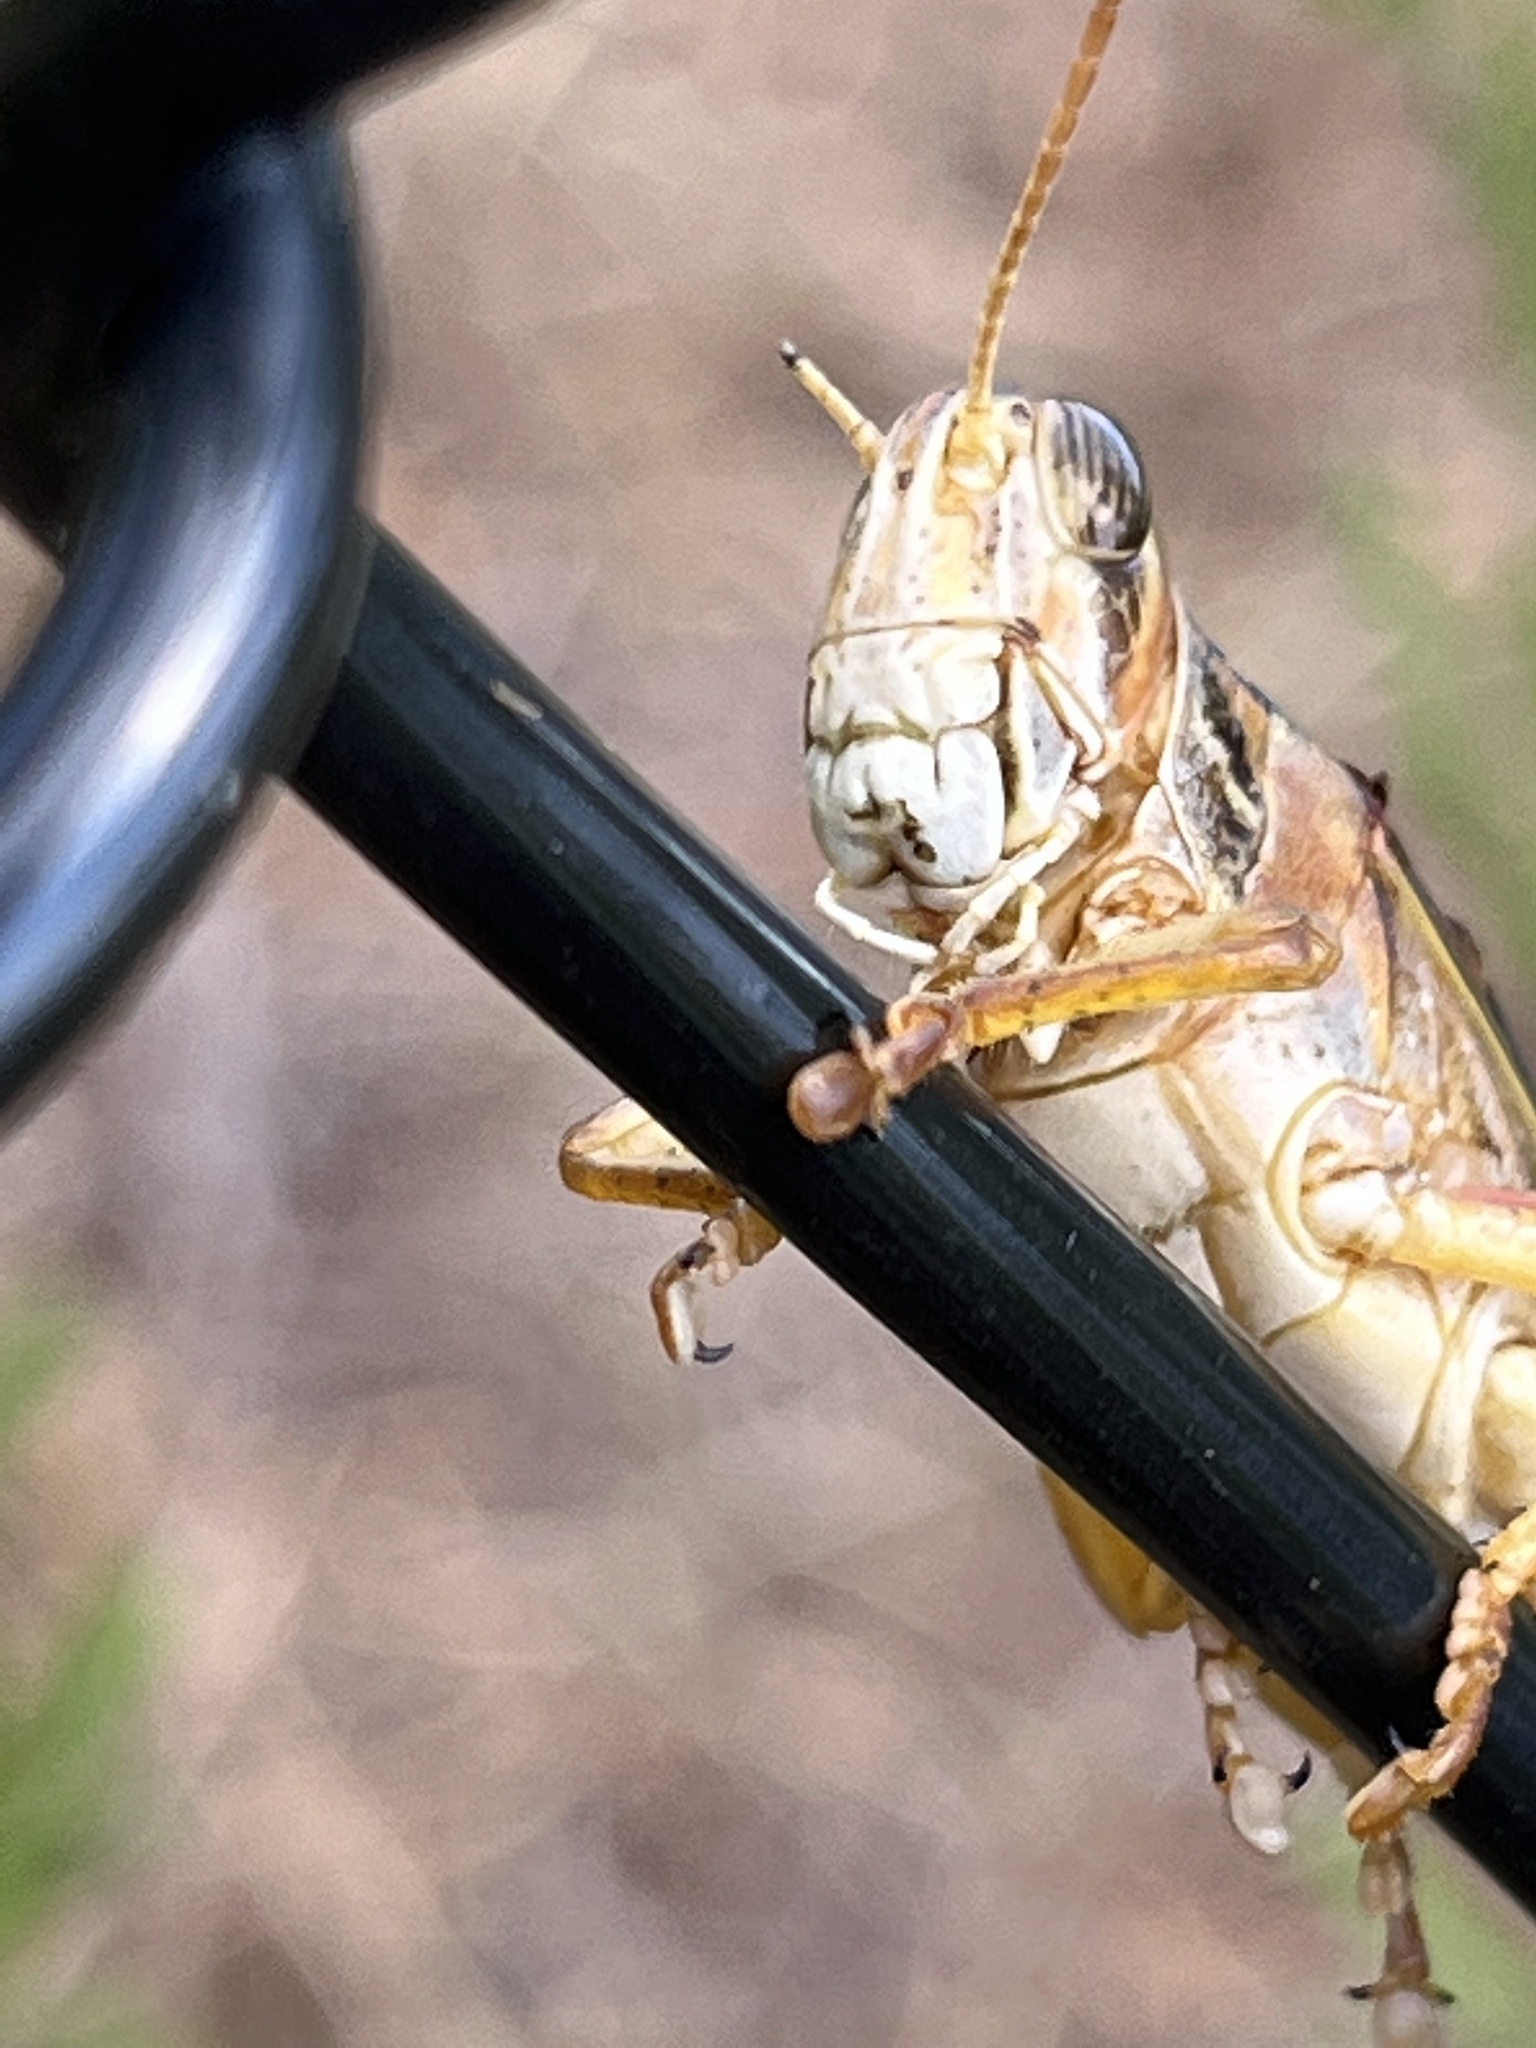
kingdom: Animalia
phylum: Arthropoda
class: Insecta
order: Orthoptera
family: Acrididae
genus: Schistocerca
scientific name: Schistocerca americana
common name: American bird locust
